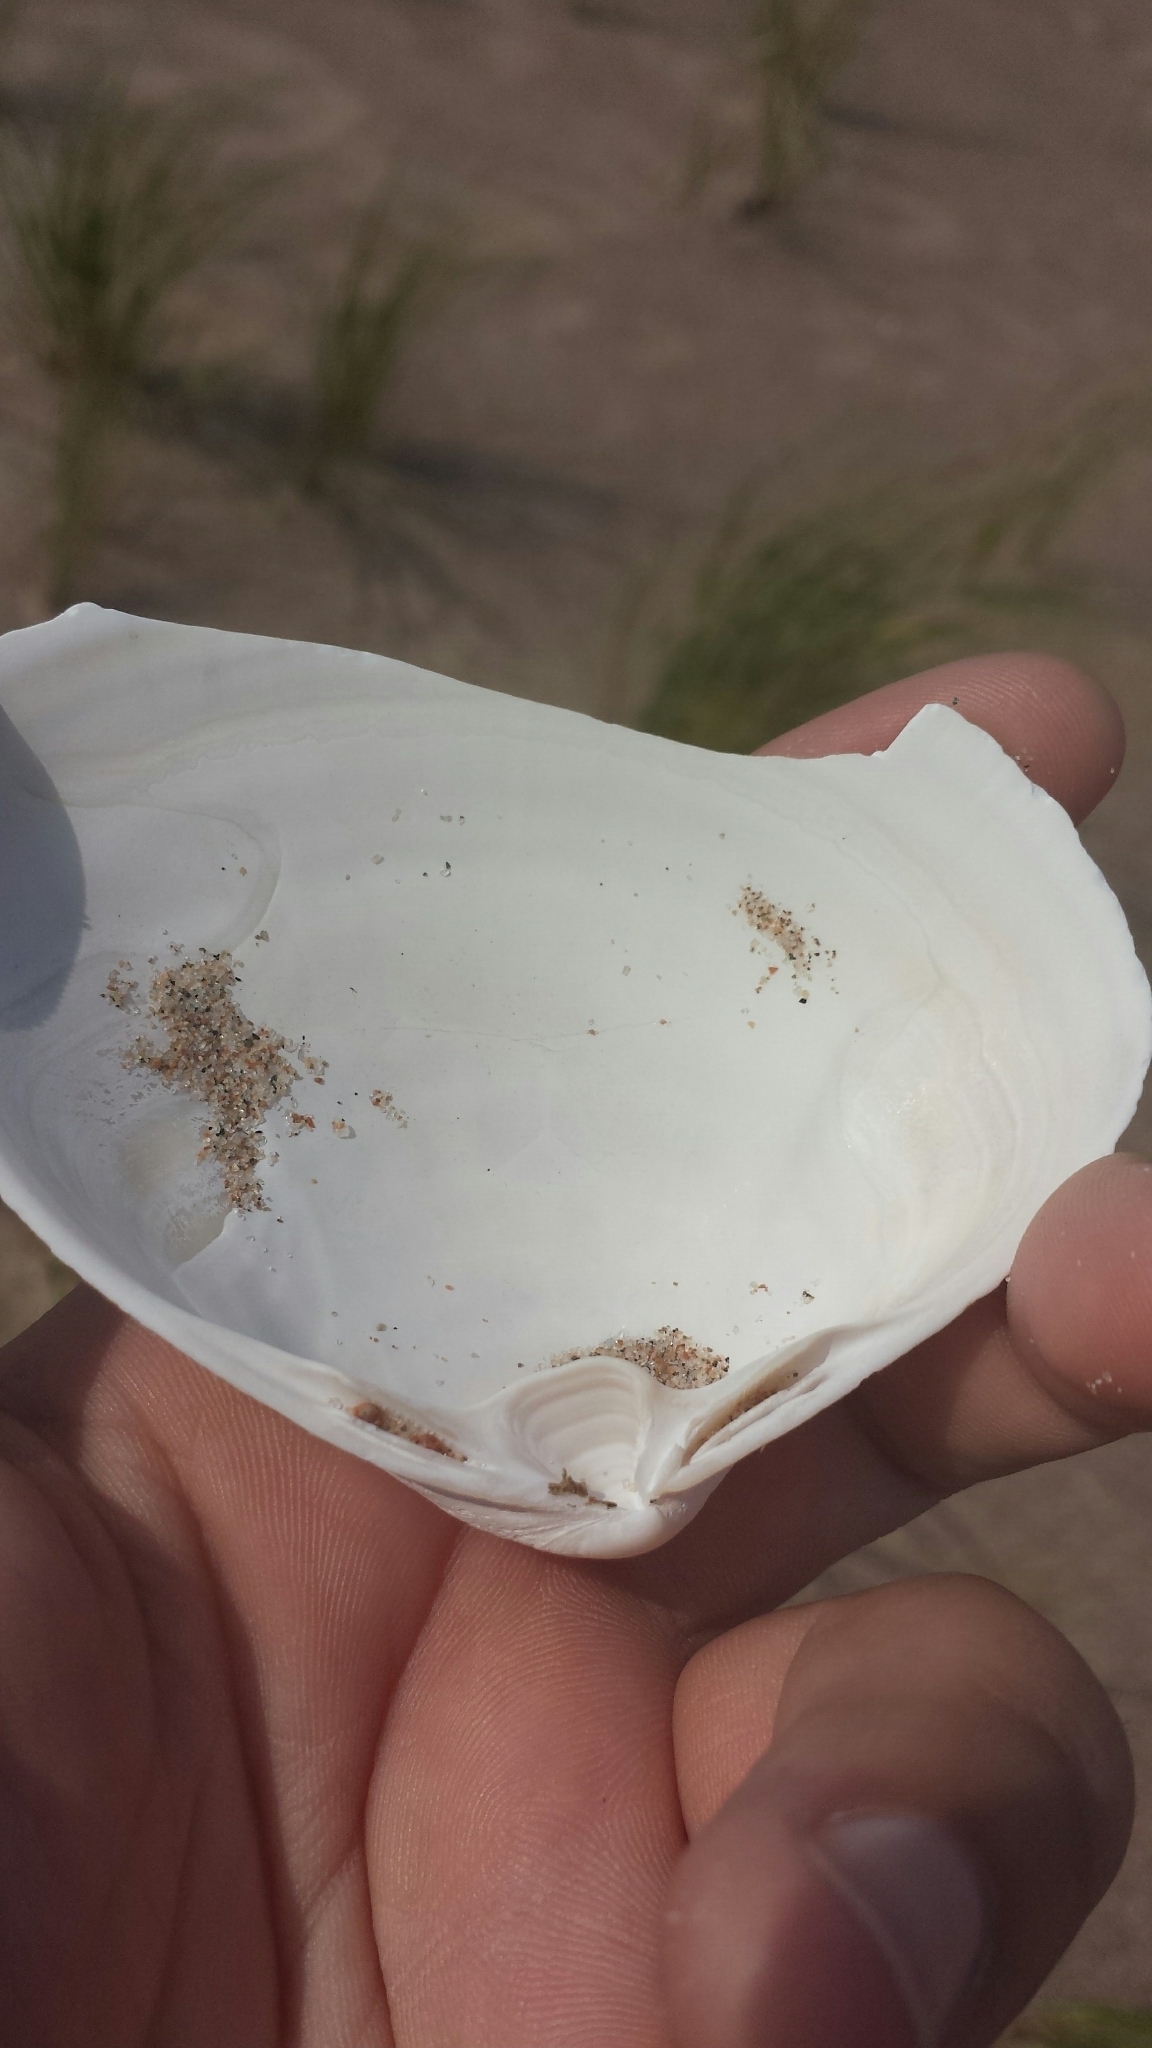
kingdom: Animalia
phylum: Mollusca
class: Bivalvia
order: Venerida
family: Mactridae
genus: Spisula
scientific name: Spisula solidissima
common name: Atlantic surf clam
